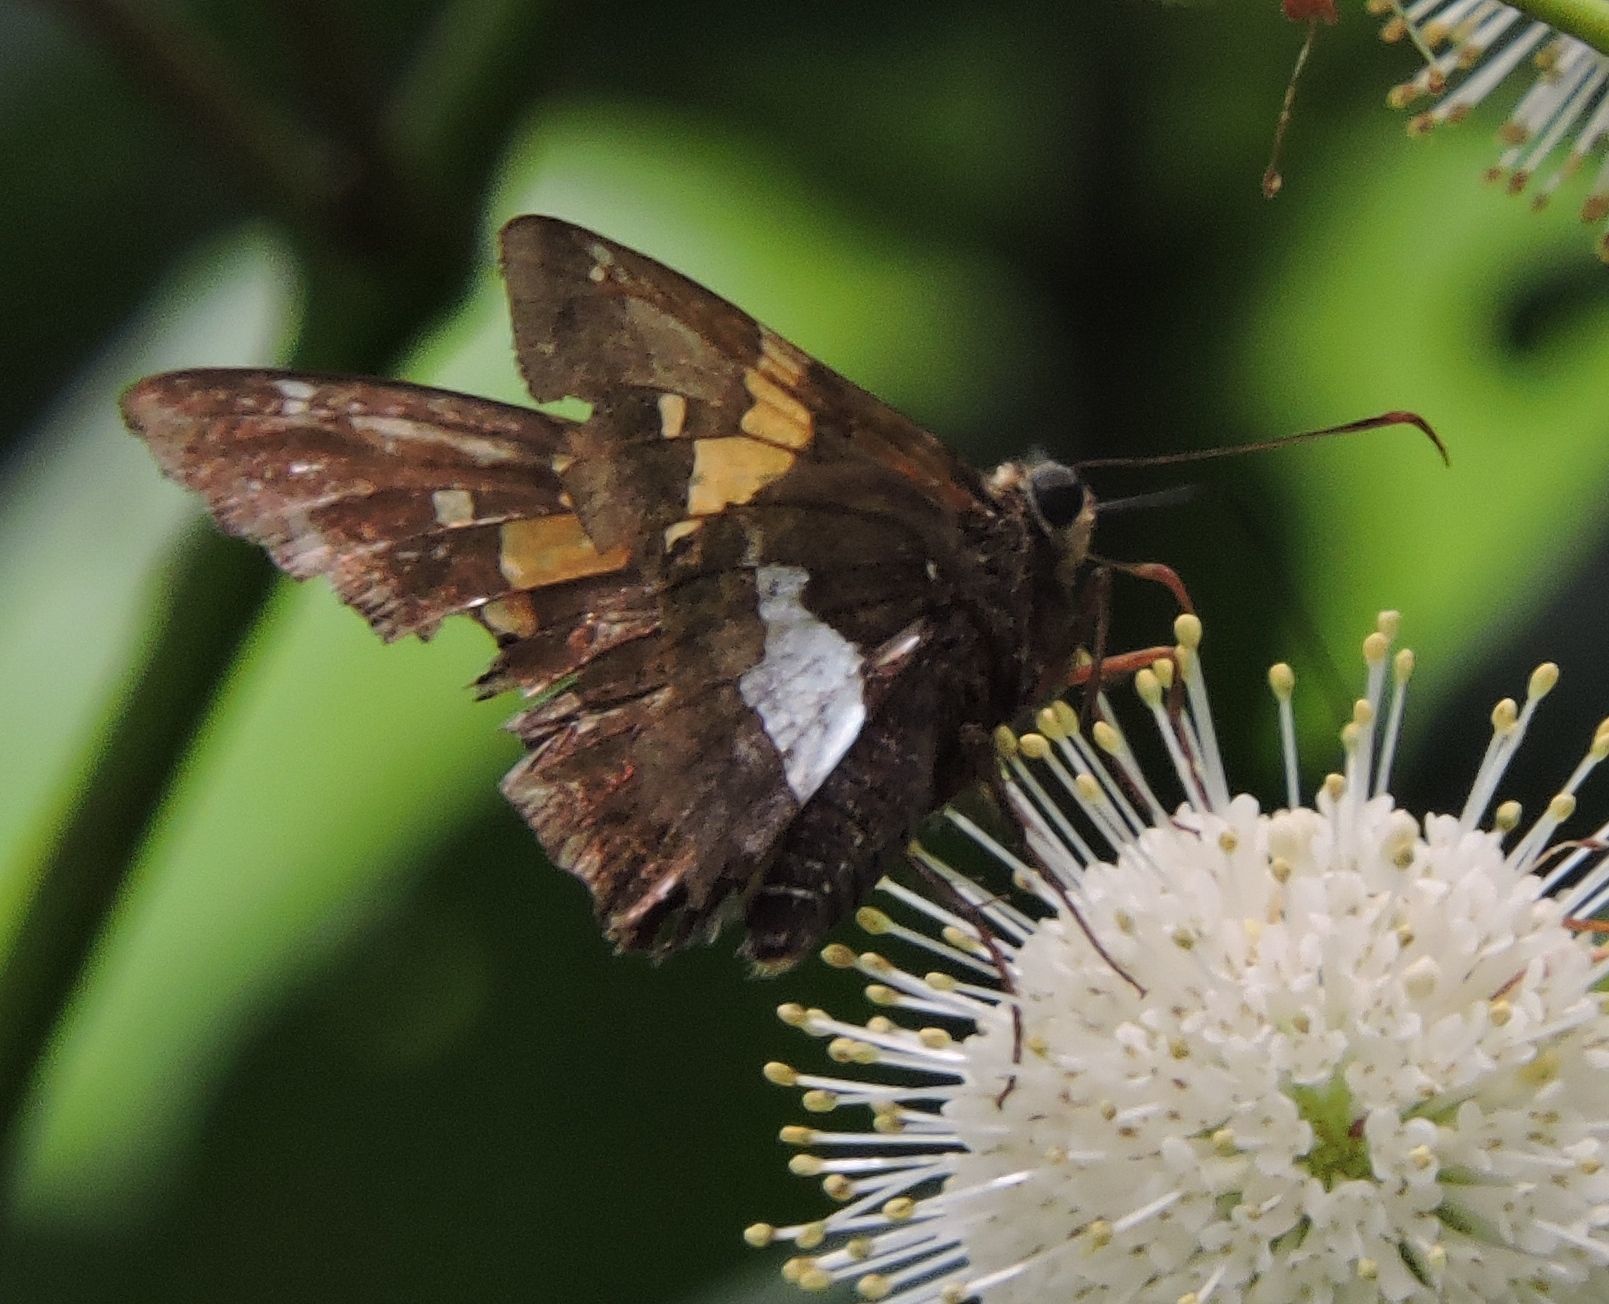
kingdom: Animalia
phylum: Arthropoda
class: Insecta
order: Lepidoptera
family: Hesperiidae
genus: Epargyreus
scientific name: Epargyreus clarus
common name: Silver-spotted skipper
